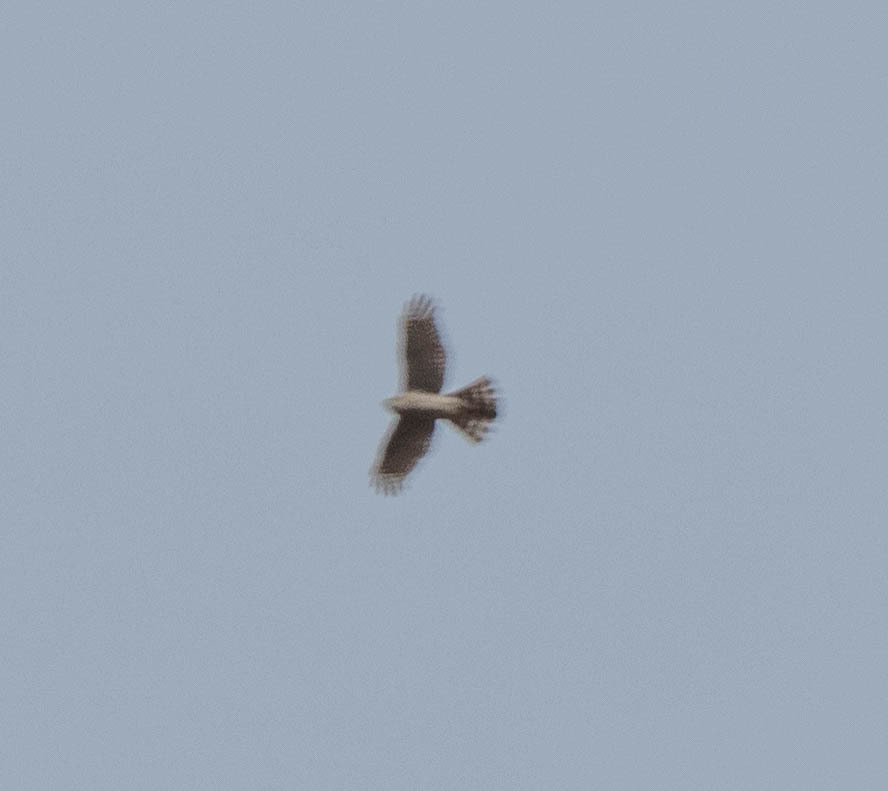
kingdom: Animalia
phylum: Chordata
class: Aves
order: Accipitriformes
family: Accipitridae
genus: Accipiter
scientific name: Accipiter nisus
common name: Eurasian sparrowhawk
